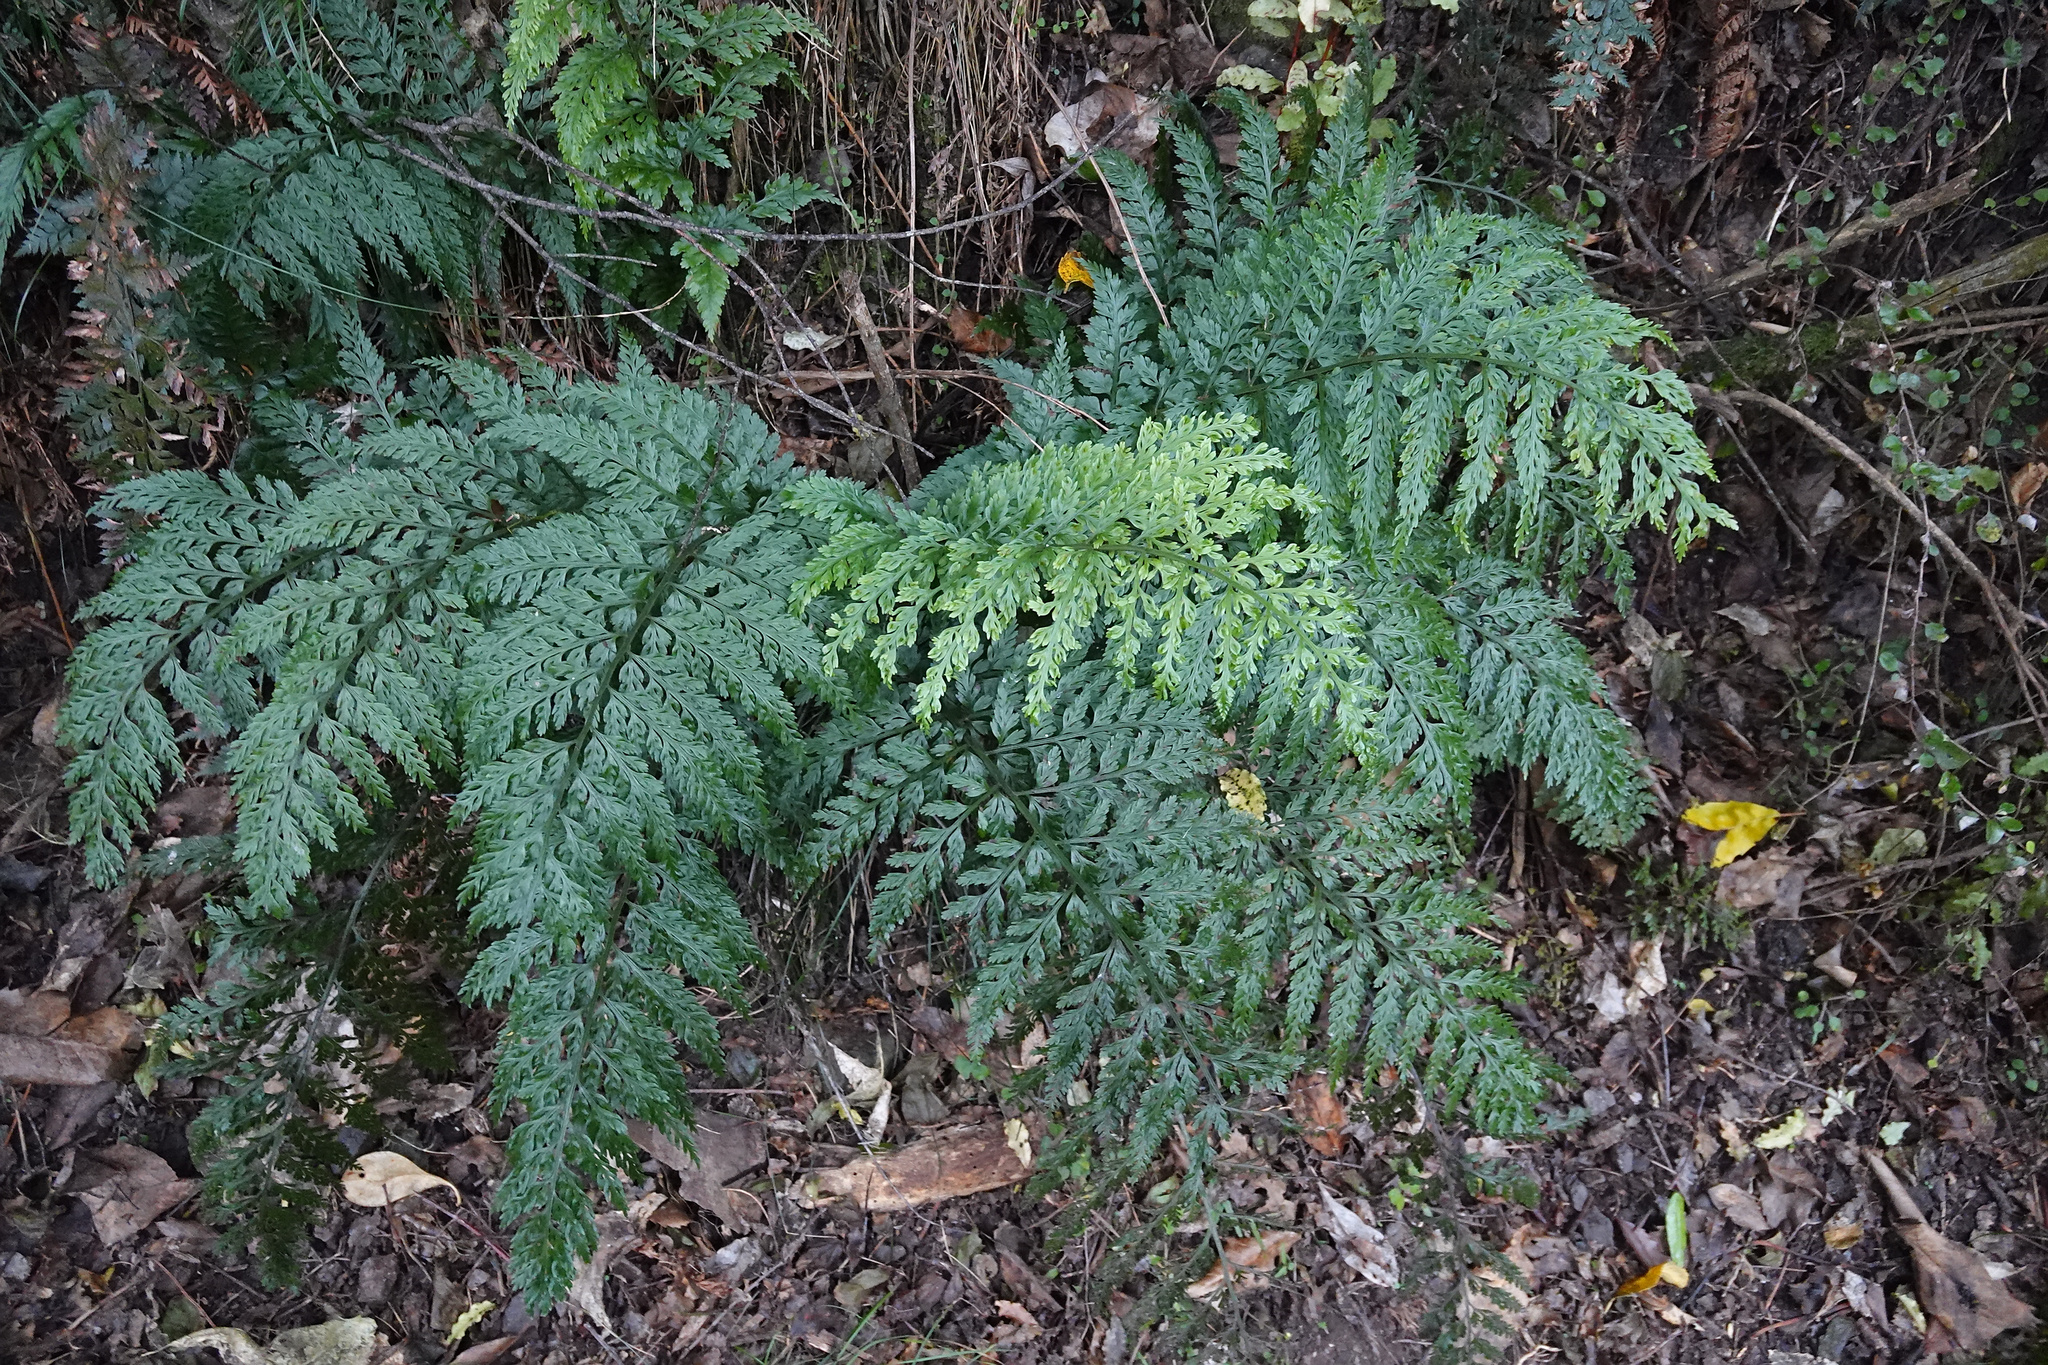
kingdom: Plantae
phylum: Tracheophyta
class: Polypodiopsida
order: Polypodiales
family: Aspleniaceae
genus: Asplenium
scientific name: Asplenium
